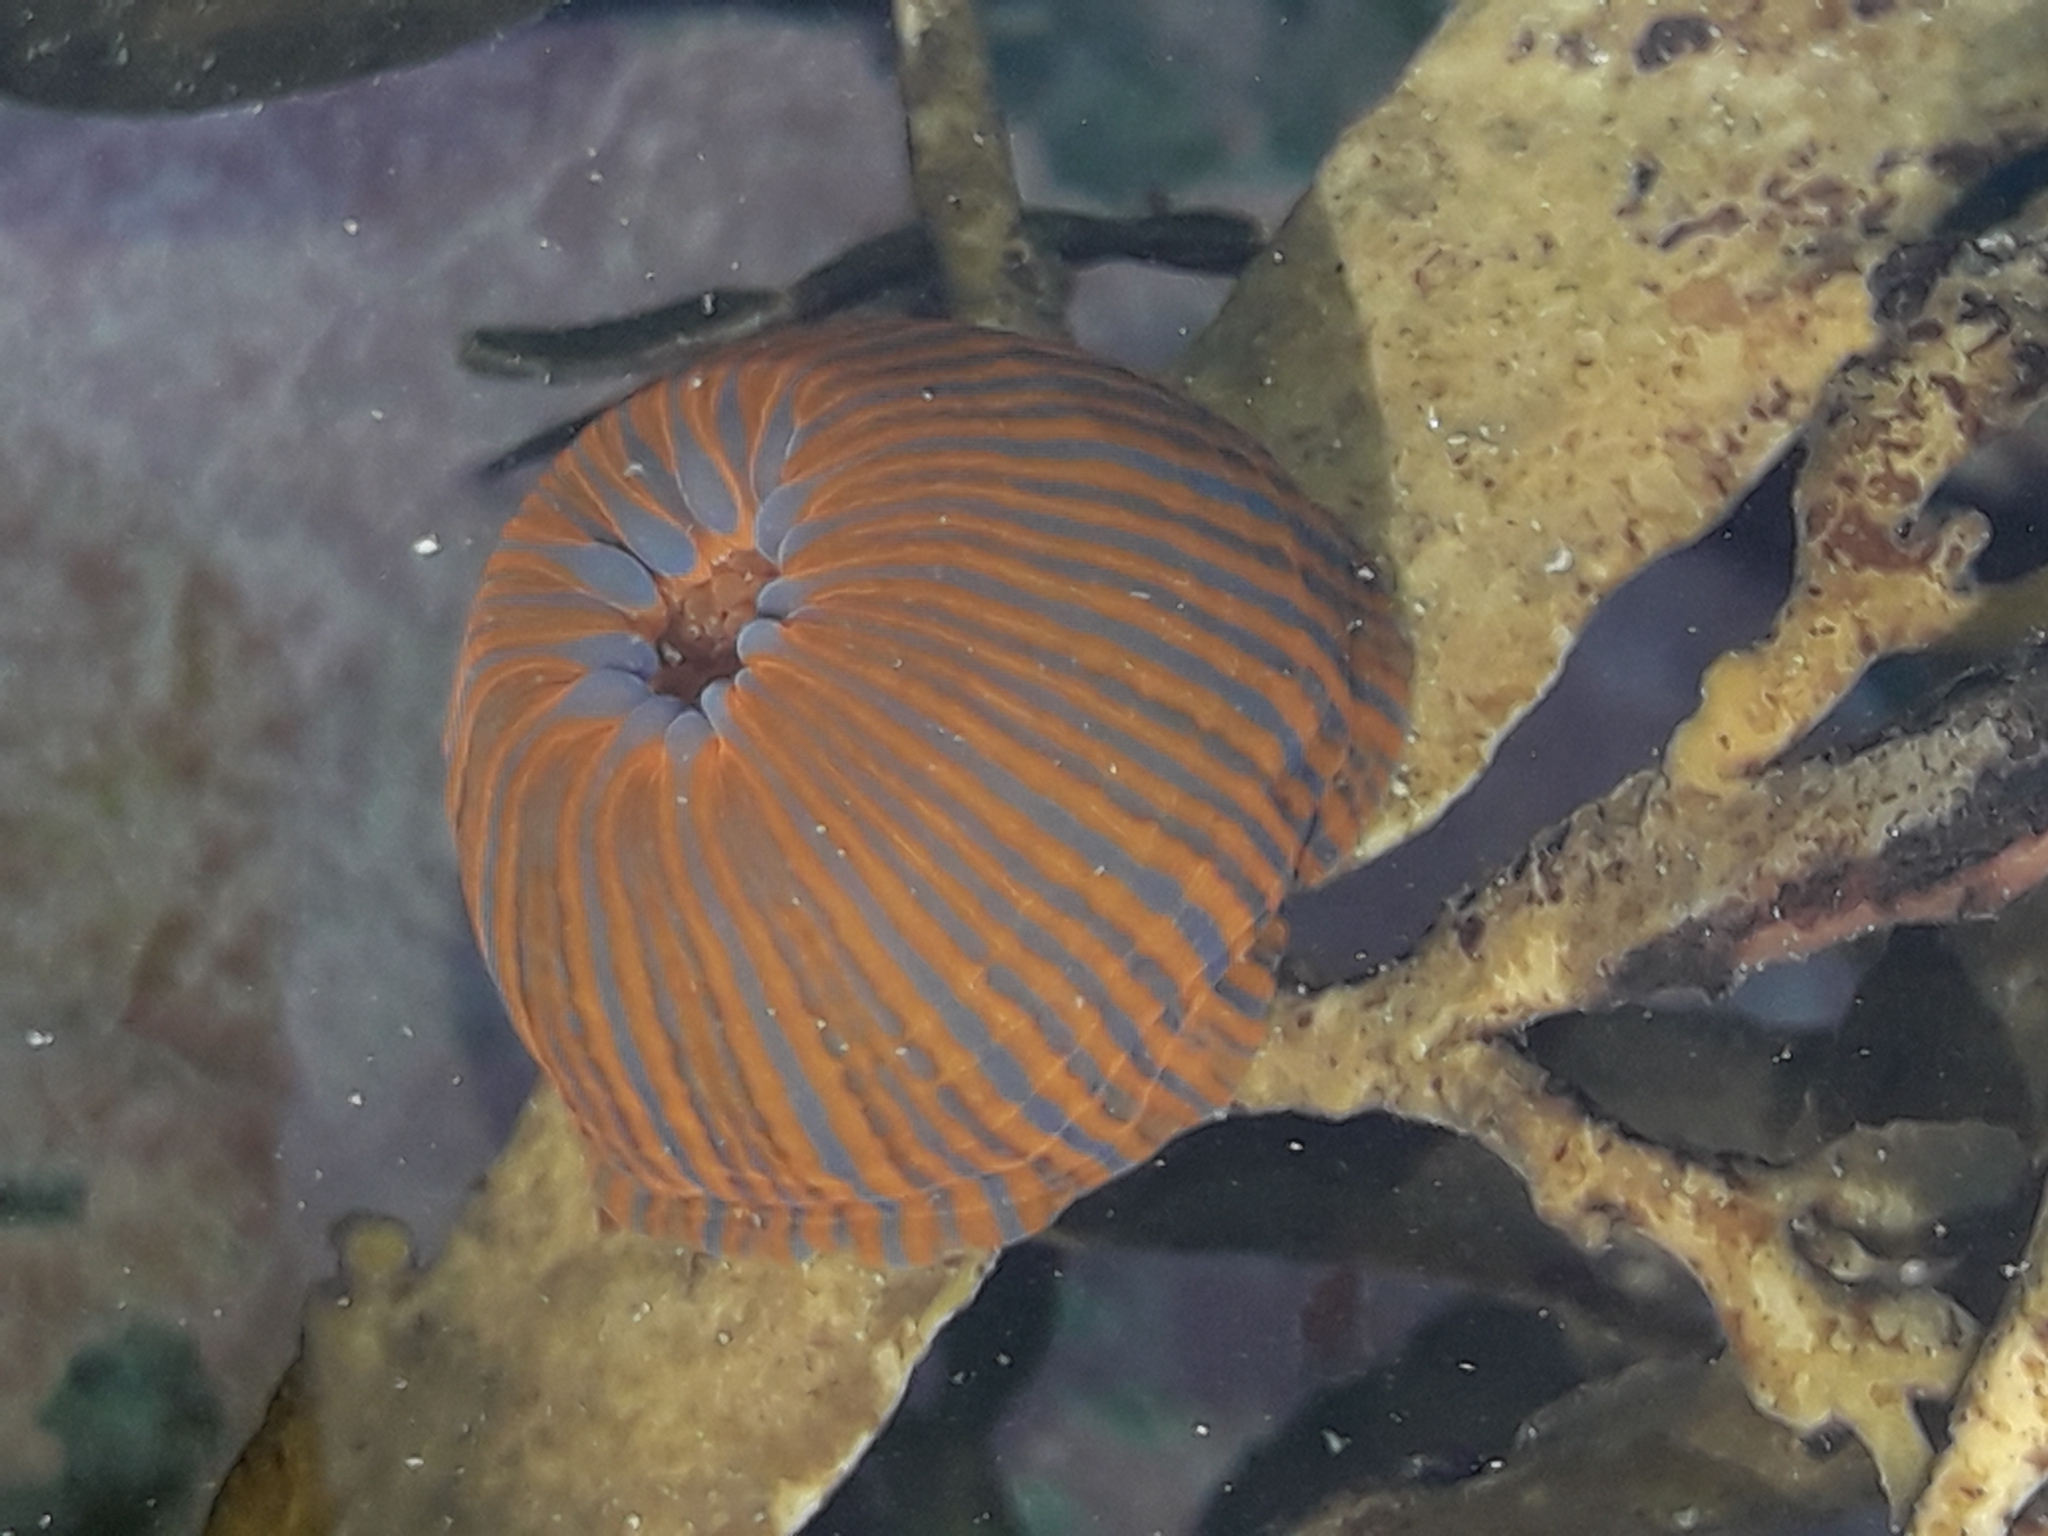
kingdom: Animalia
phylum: Cnidaria
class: Anthozoa
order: Actiniaria
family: Actiniidae
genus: Epiactis
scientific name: Epiactis
